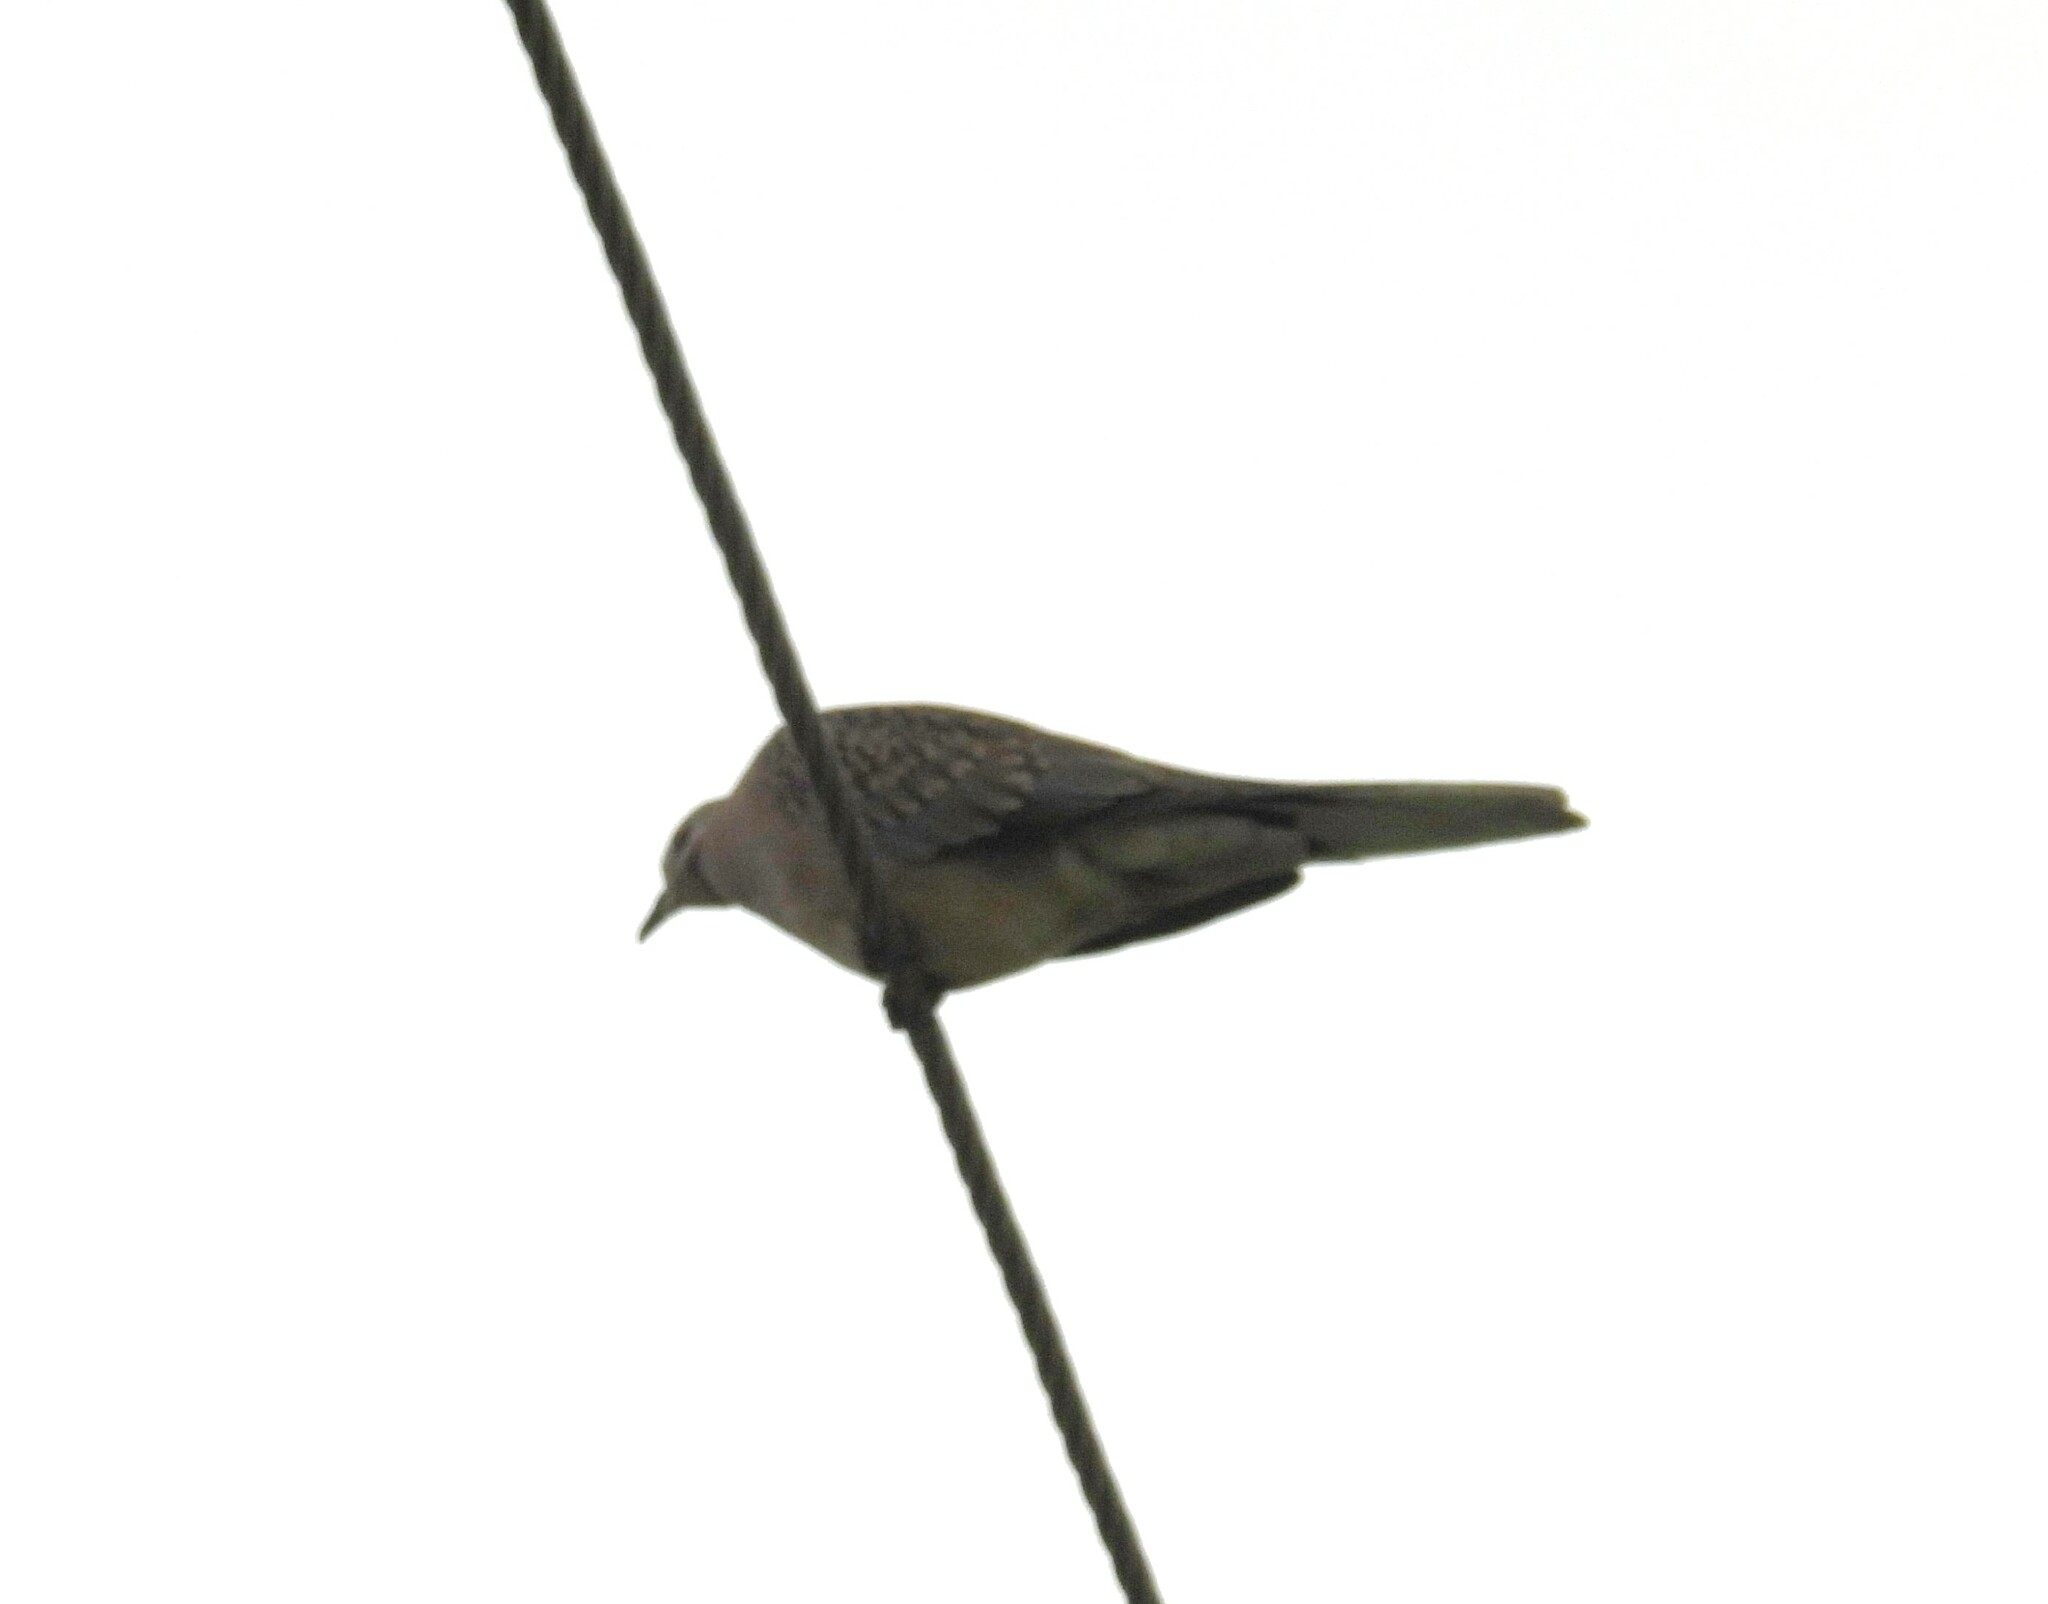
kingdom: Animalia
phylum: Chordata
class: Aves
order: Columbiformes
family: Columbidae
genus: Spilopelia
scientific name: Spilopelia chinensis
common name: Spotted dove
